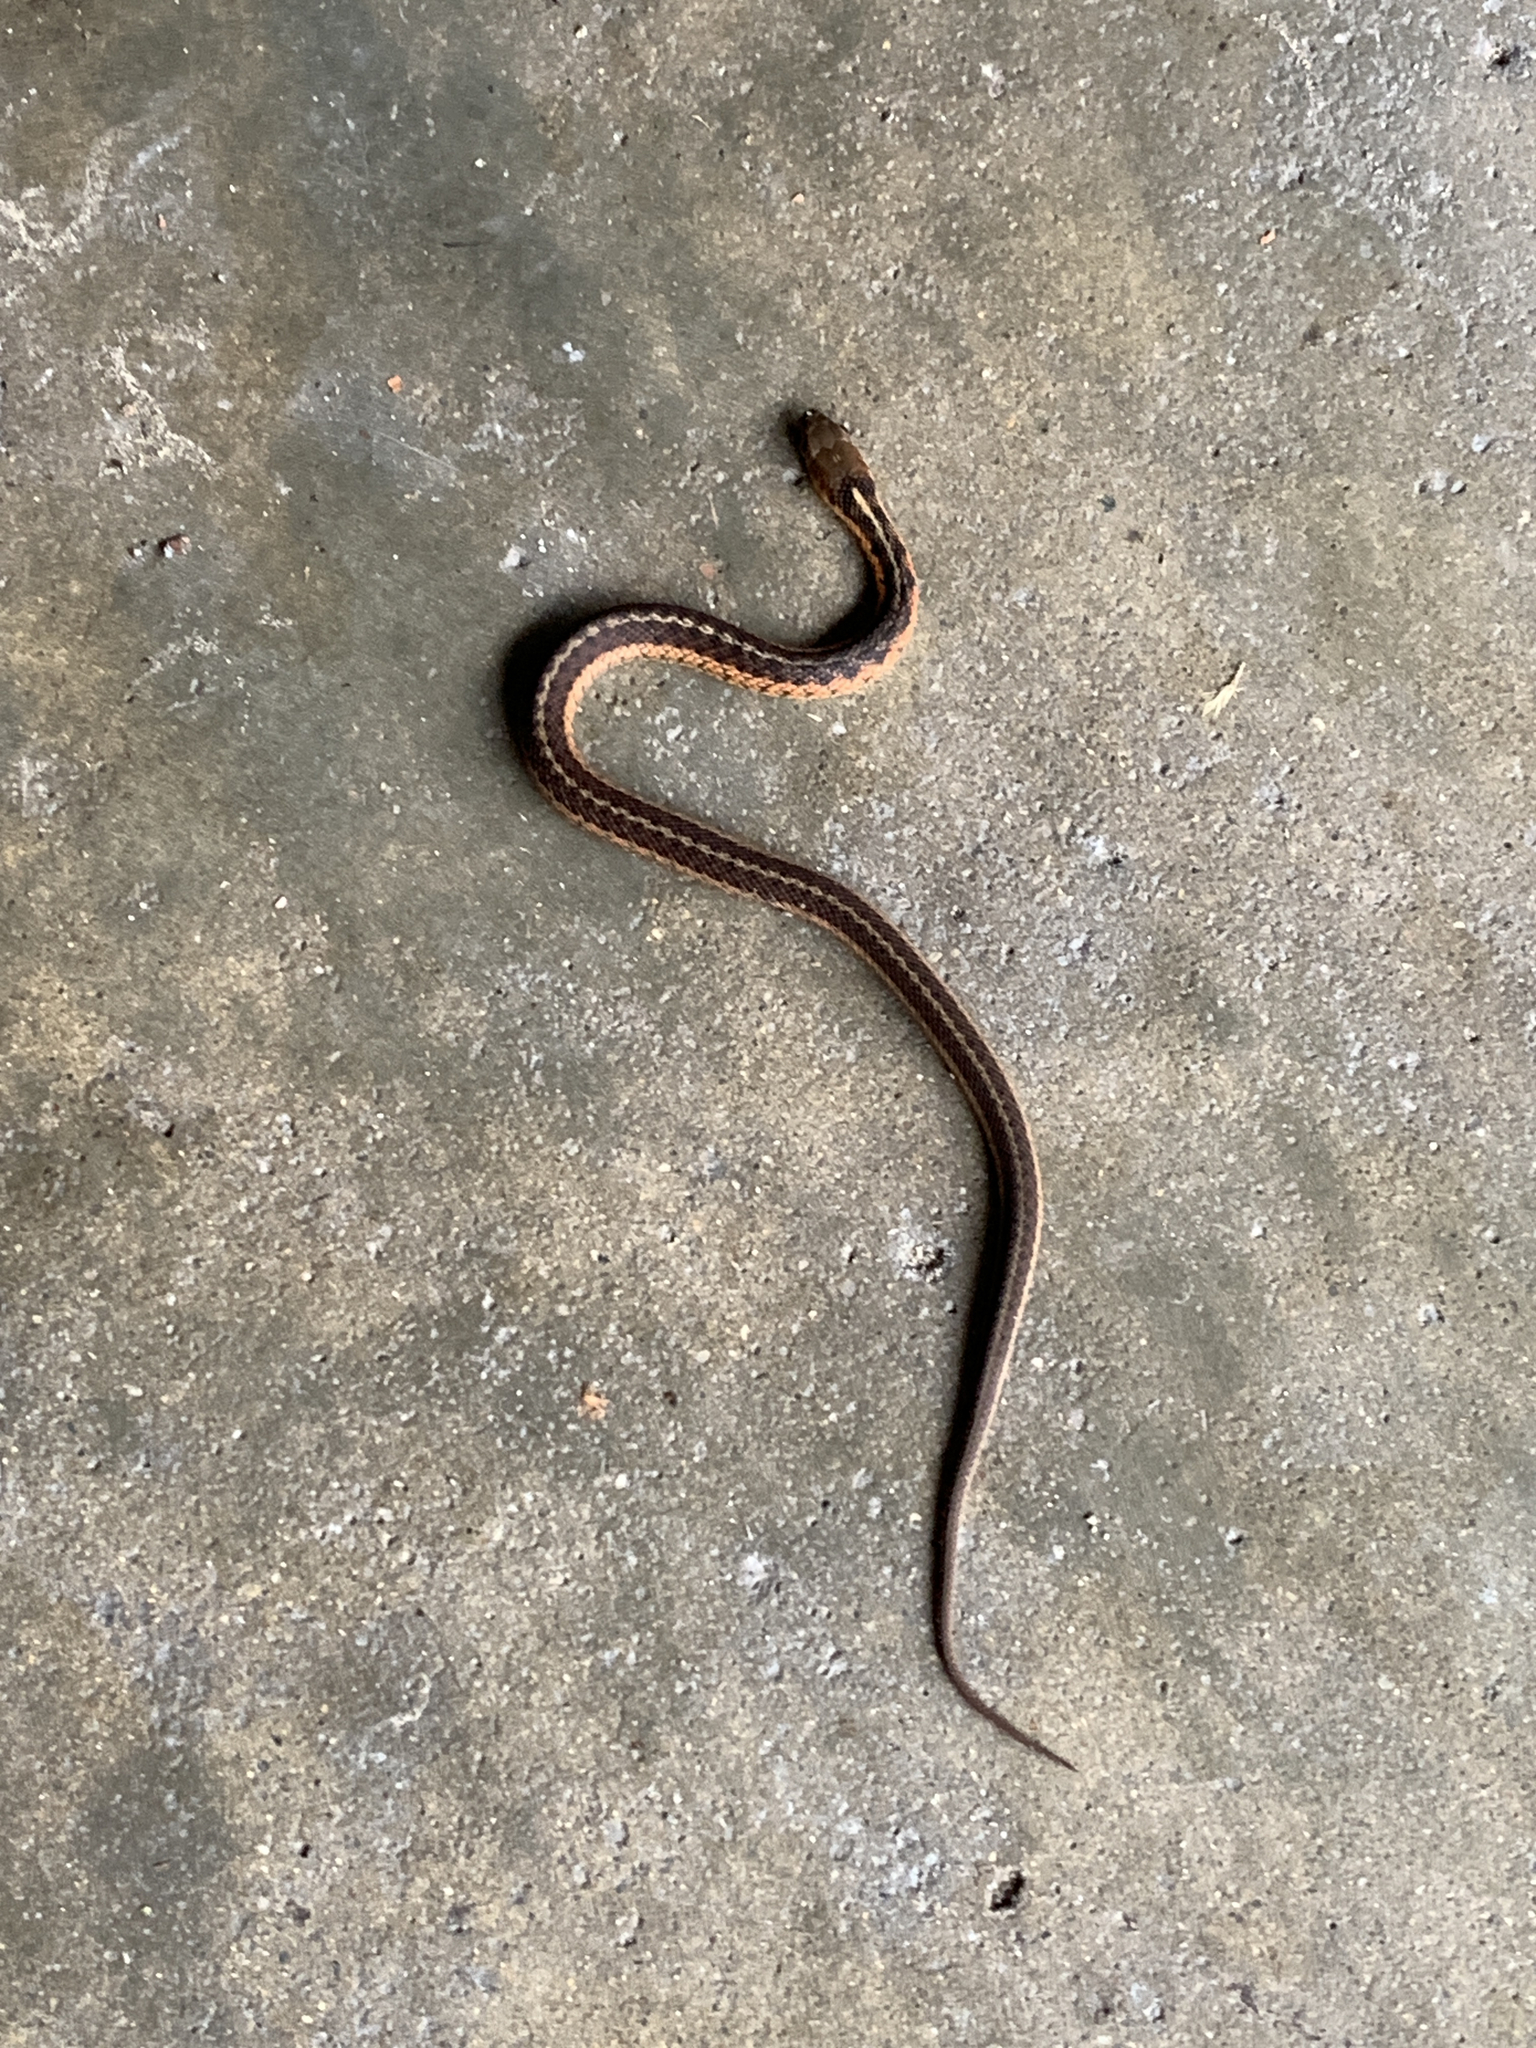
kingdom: Animalia
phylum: Chordata
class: Squamata
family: Colubridae
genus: Thamnophis
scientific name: Thamnophis sirtalis
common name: Common garter snake
